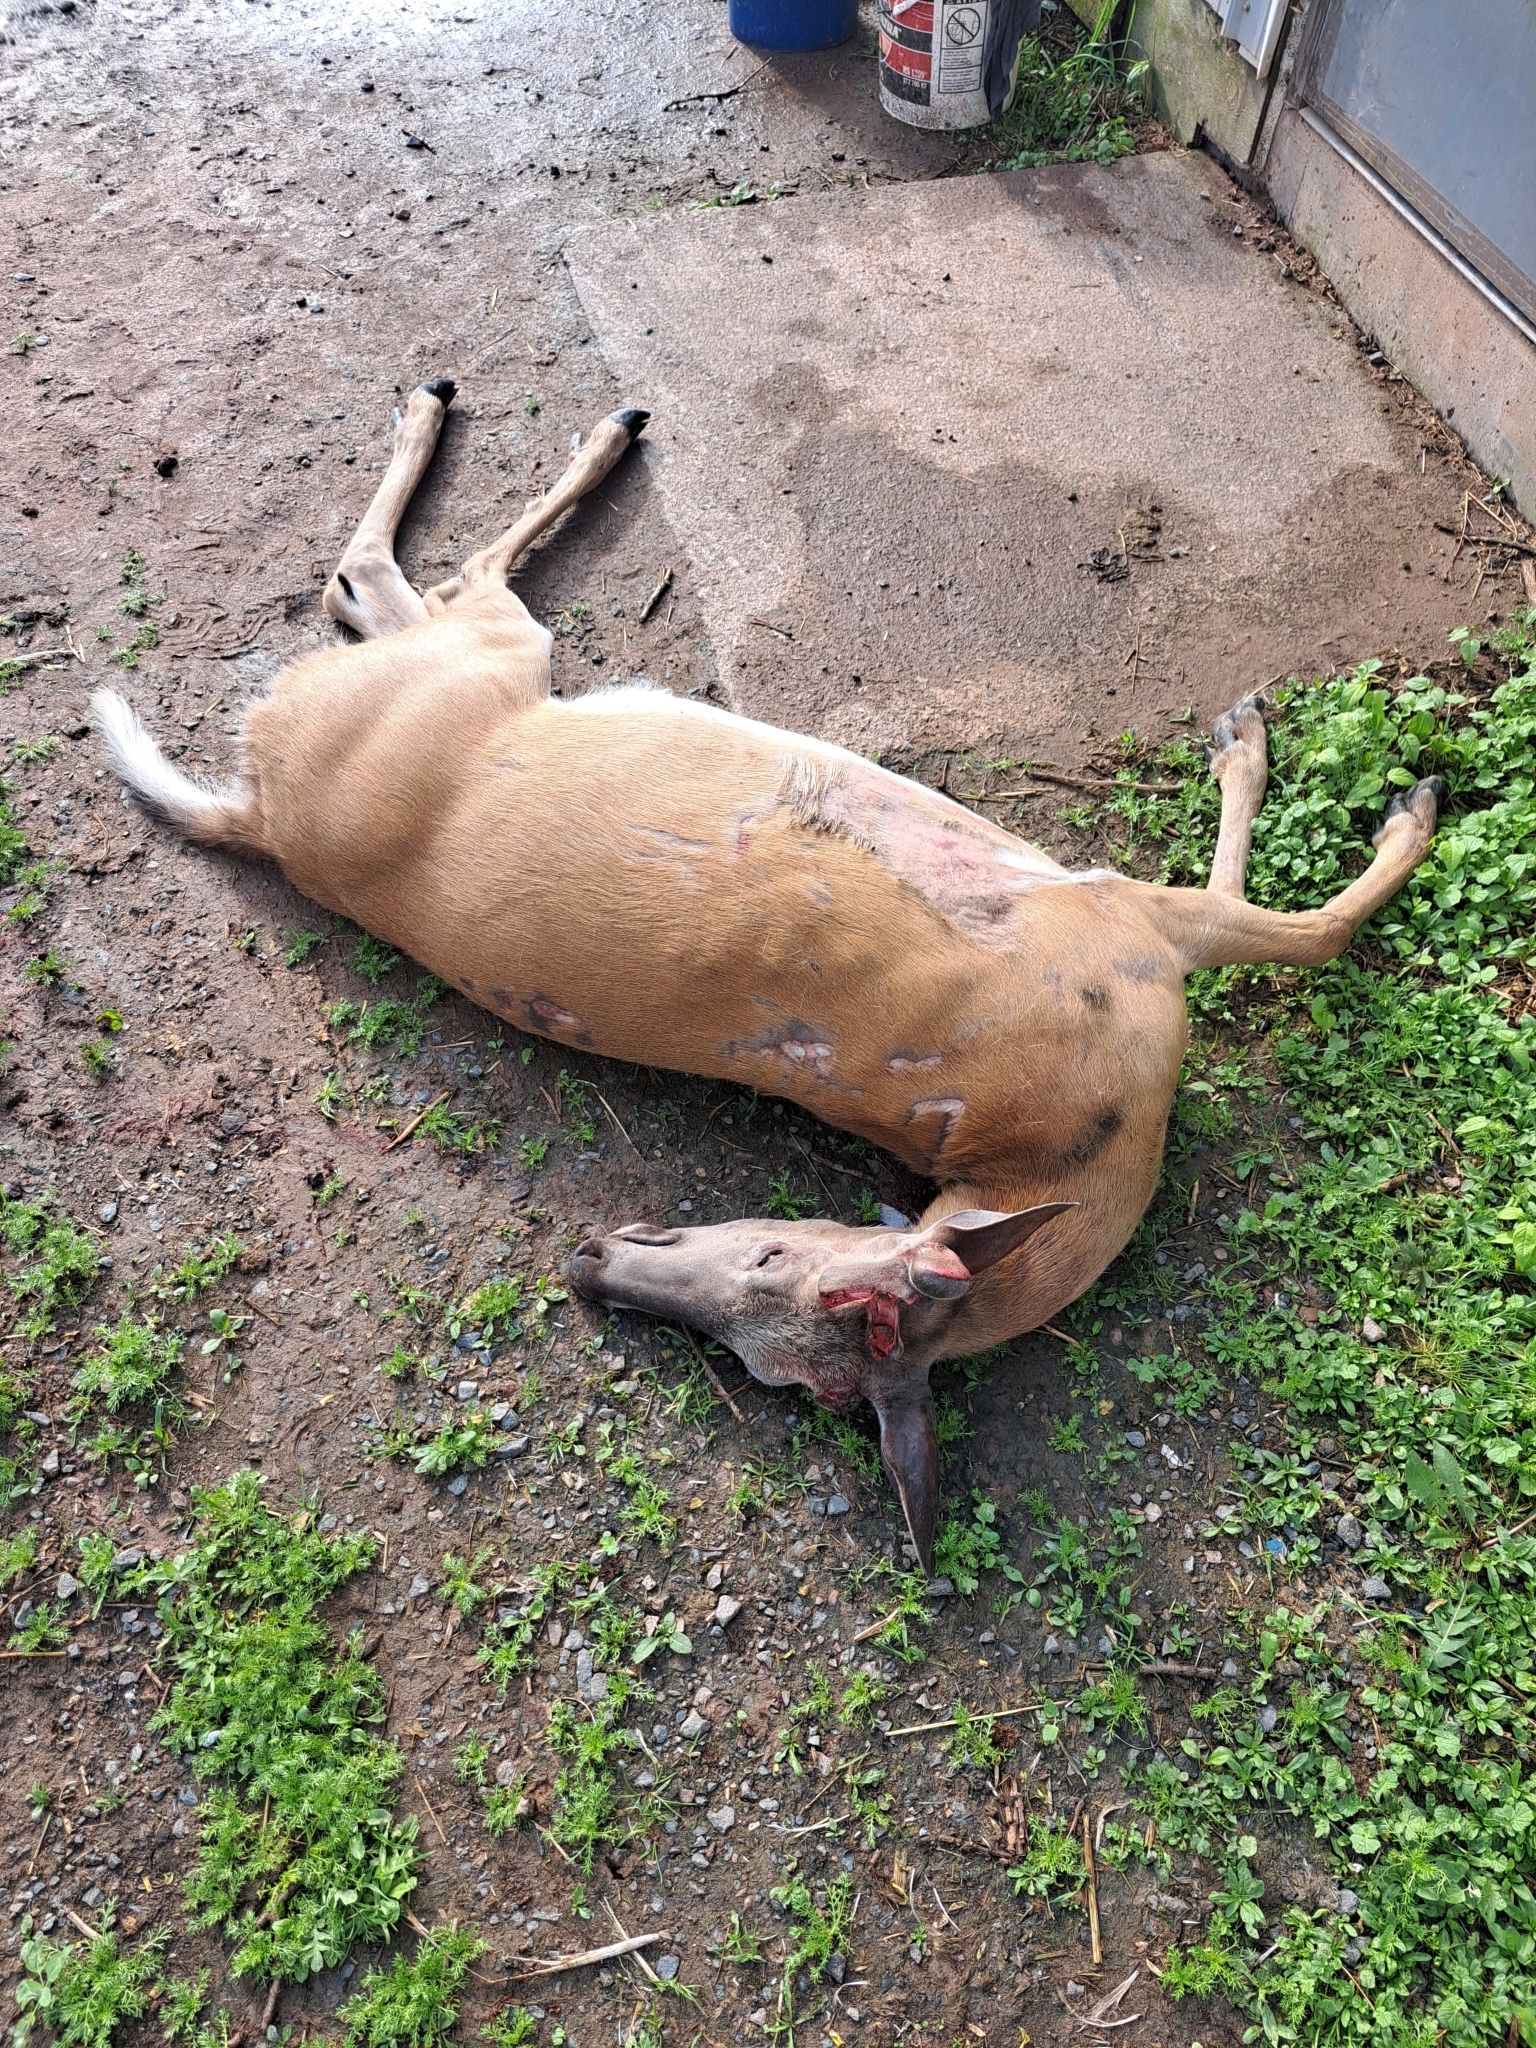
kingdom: Animalia
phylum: Chordata
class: Mammalia
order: Artiodactyla
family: Cervidae
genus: Odocoileus
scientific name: Odocoileus virginianus
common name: White-tailed deer
